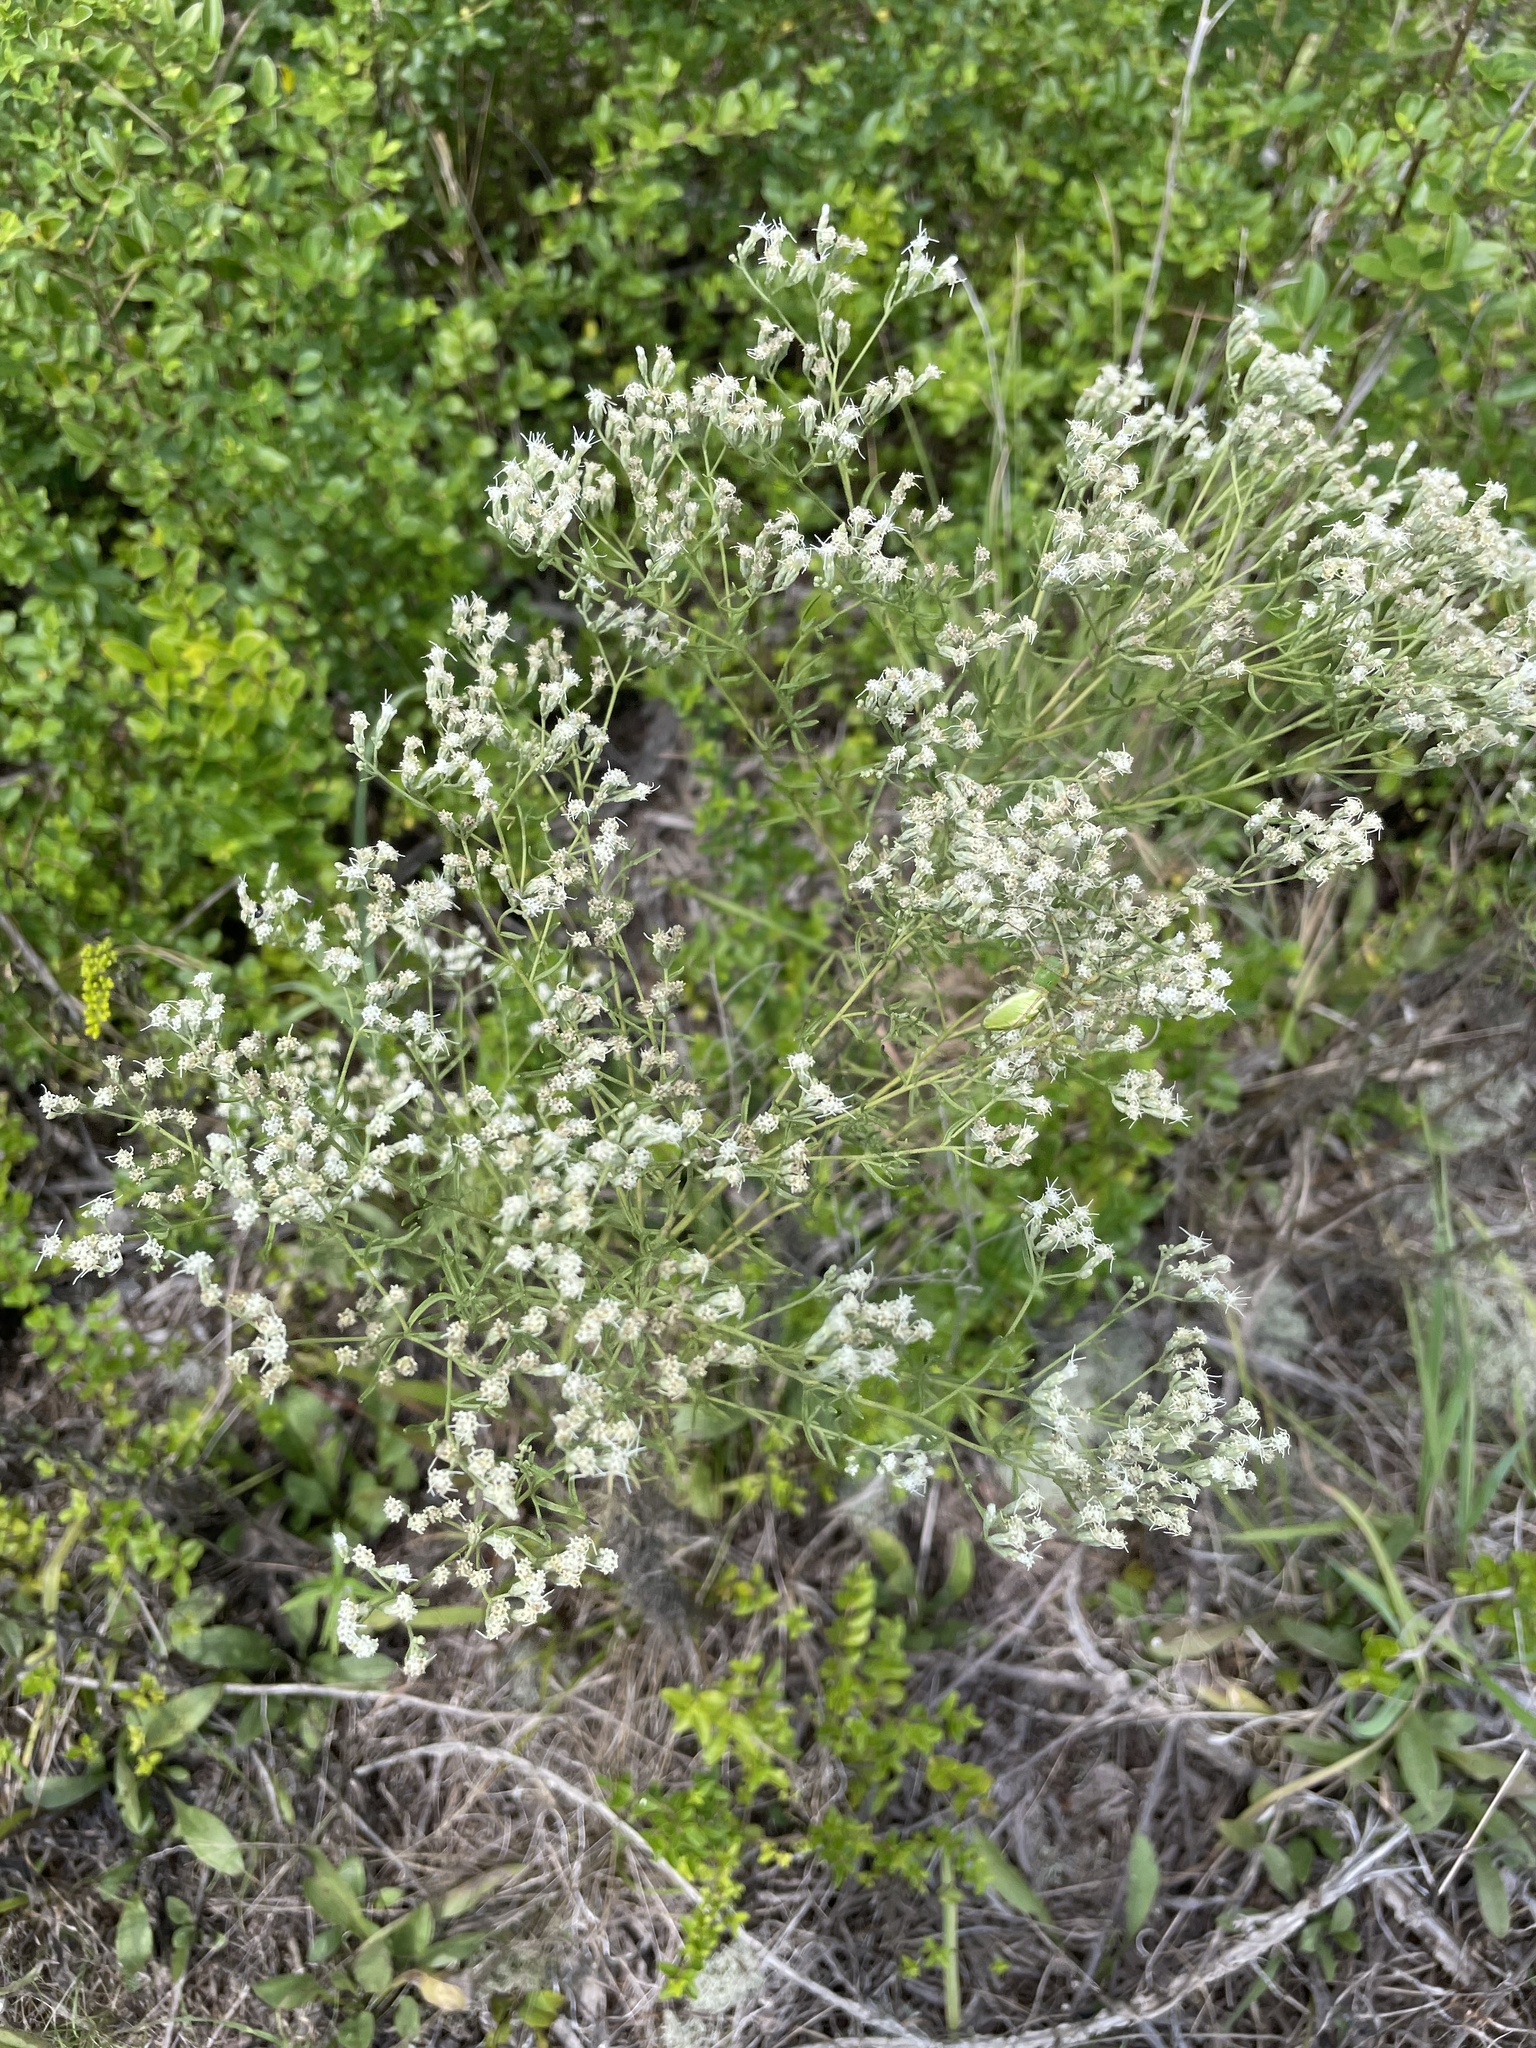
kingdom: Plantae
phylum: Tracheophyta
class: Magnoliopsida
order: Asterales
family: Asteraceae
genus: Eupatorium
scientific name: Eupatorium hyssopifolium
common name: Hyssop-leaf thoroughwort
